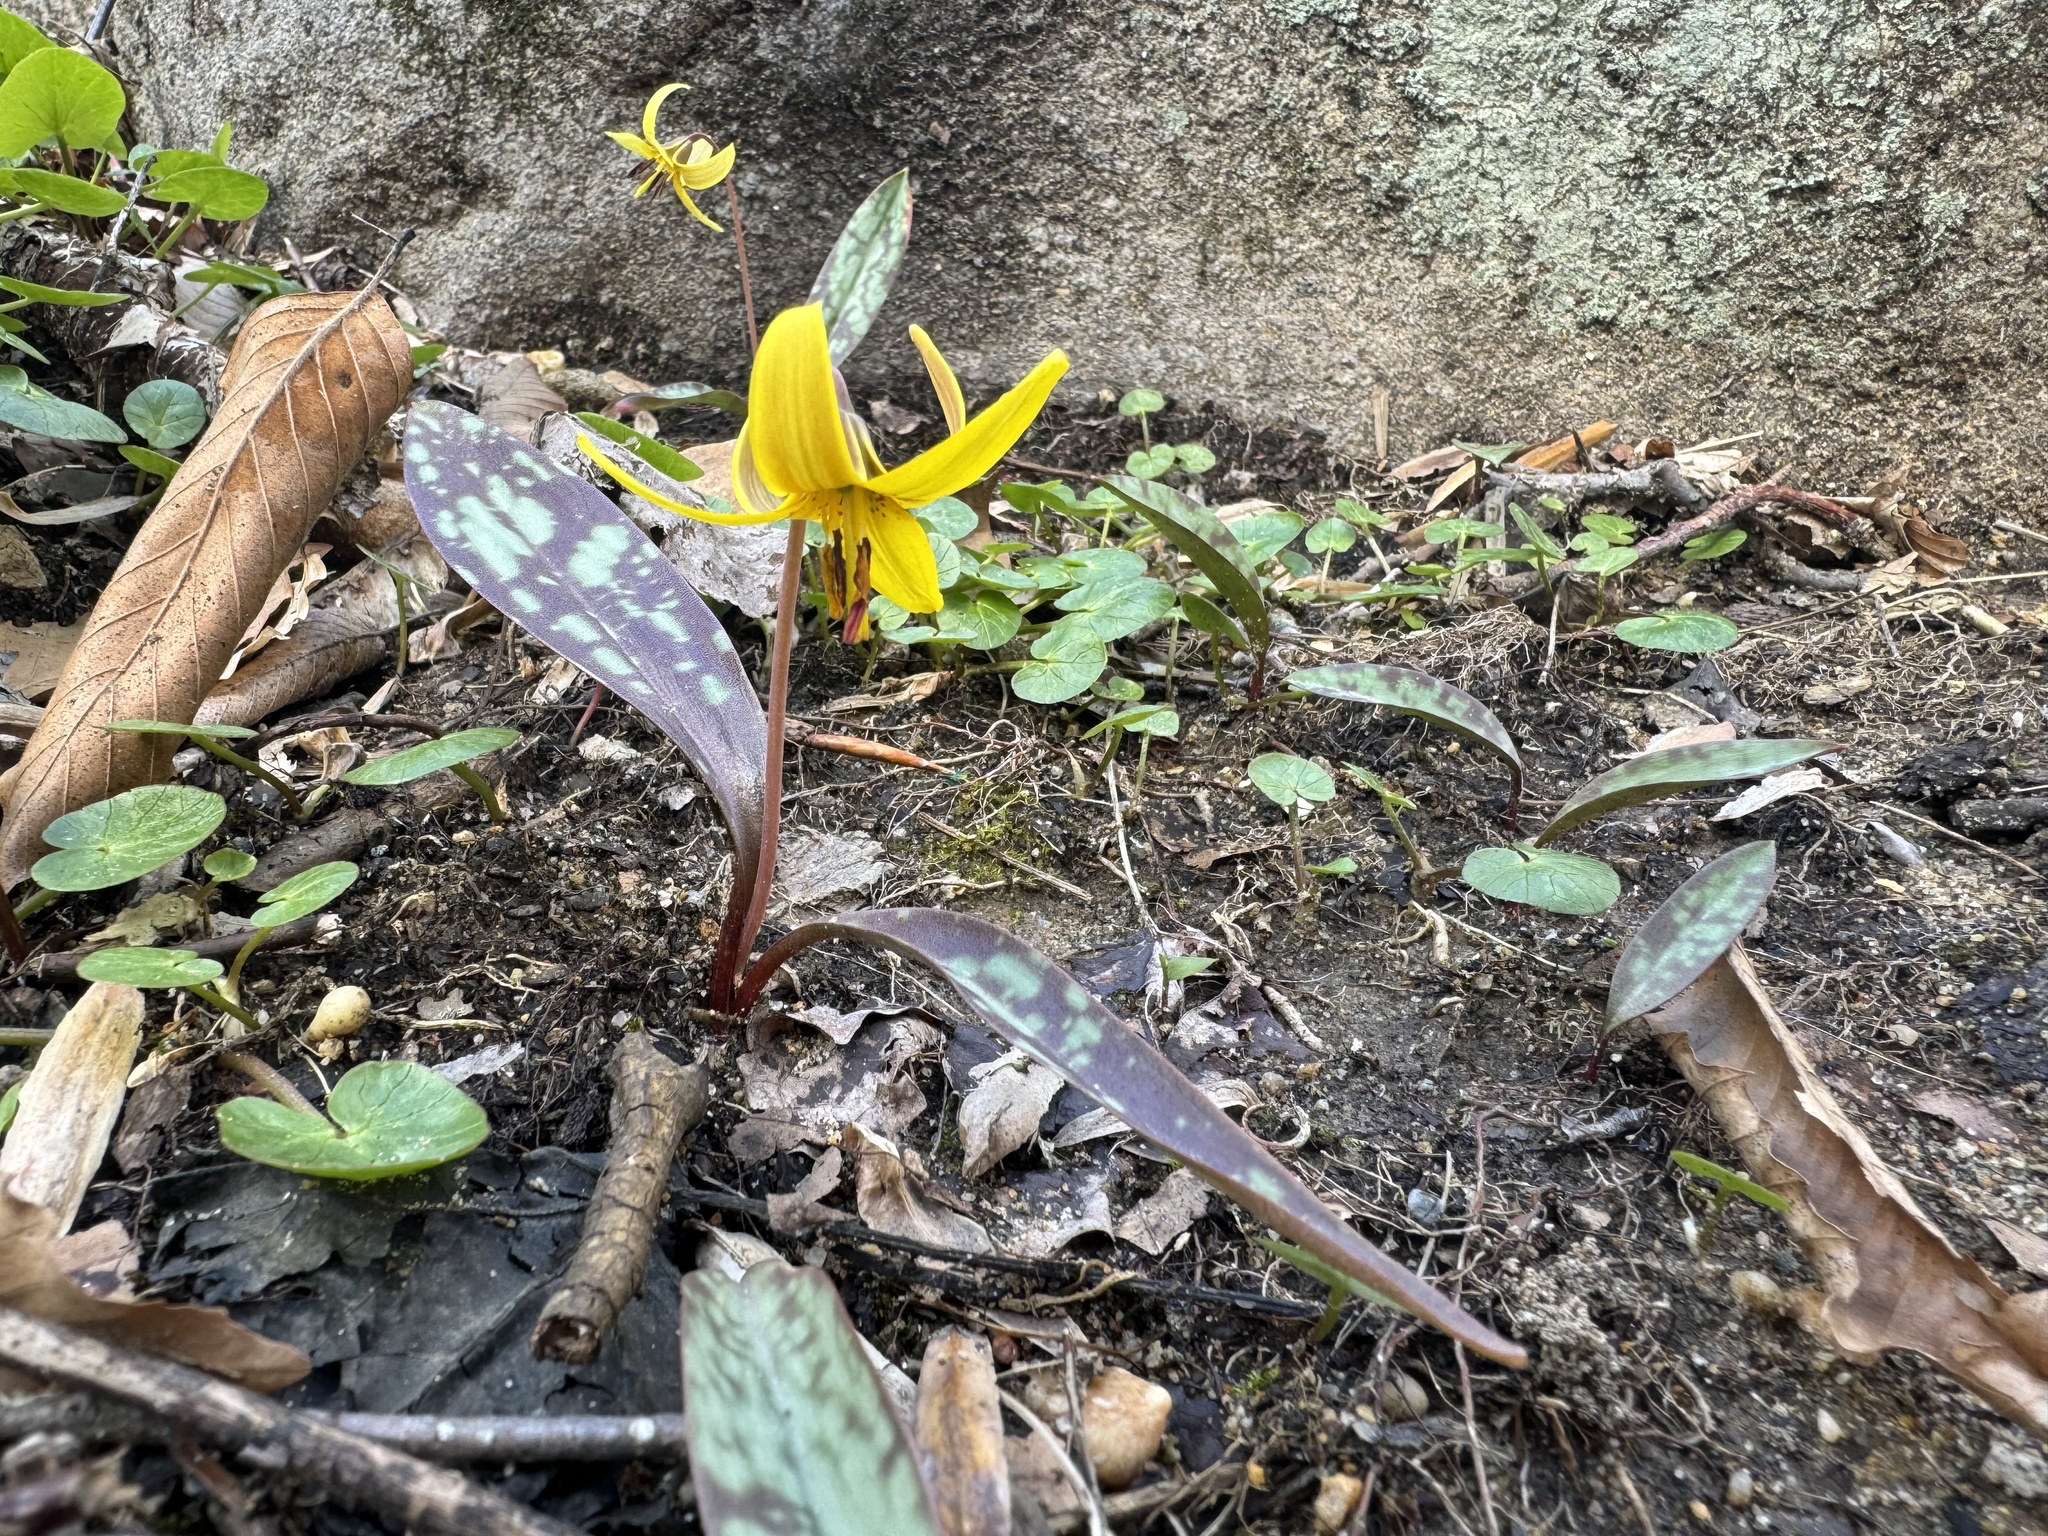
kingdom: Plantae
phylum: Tracheophyta
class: Liliopsida
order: Liliales
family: Liliaceae
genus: Erythronium
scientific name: Erythronium americanum
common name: Yellow adder's-tongue
